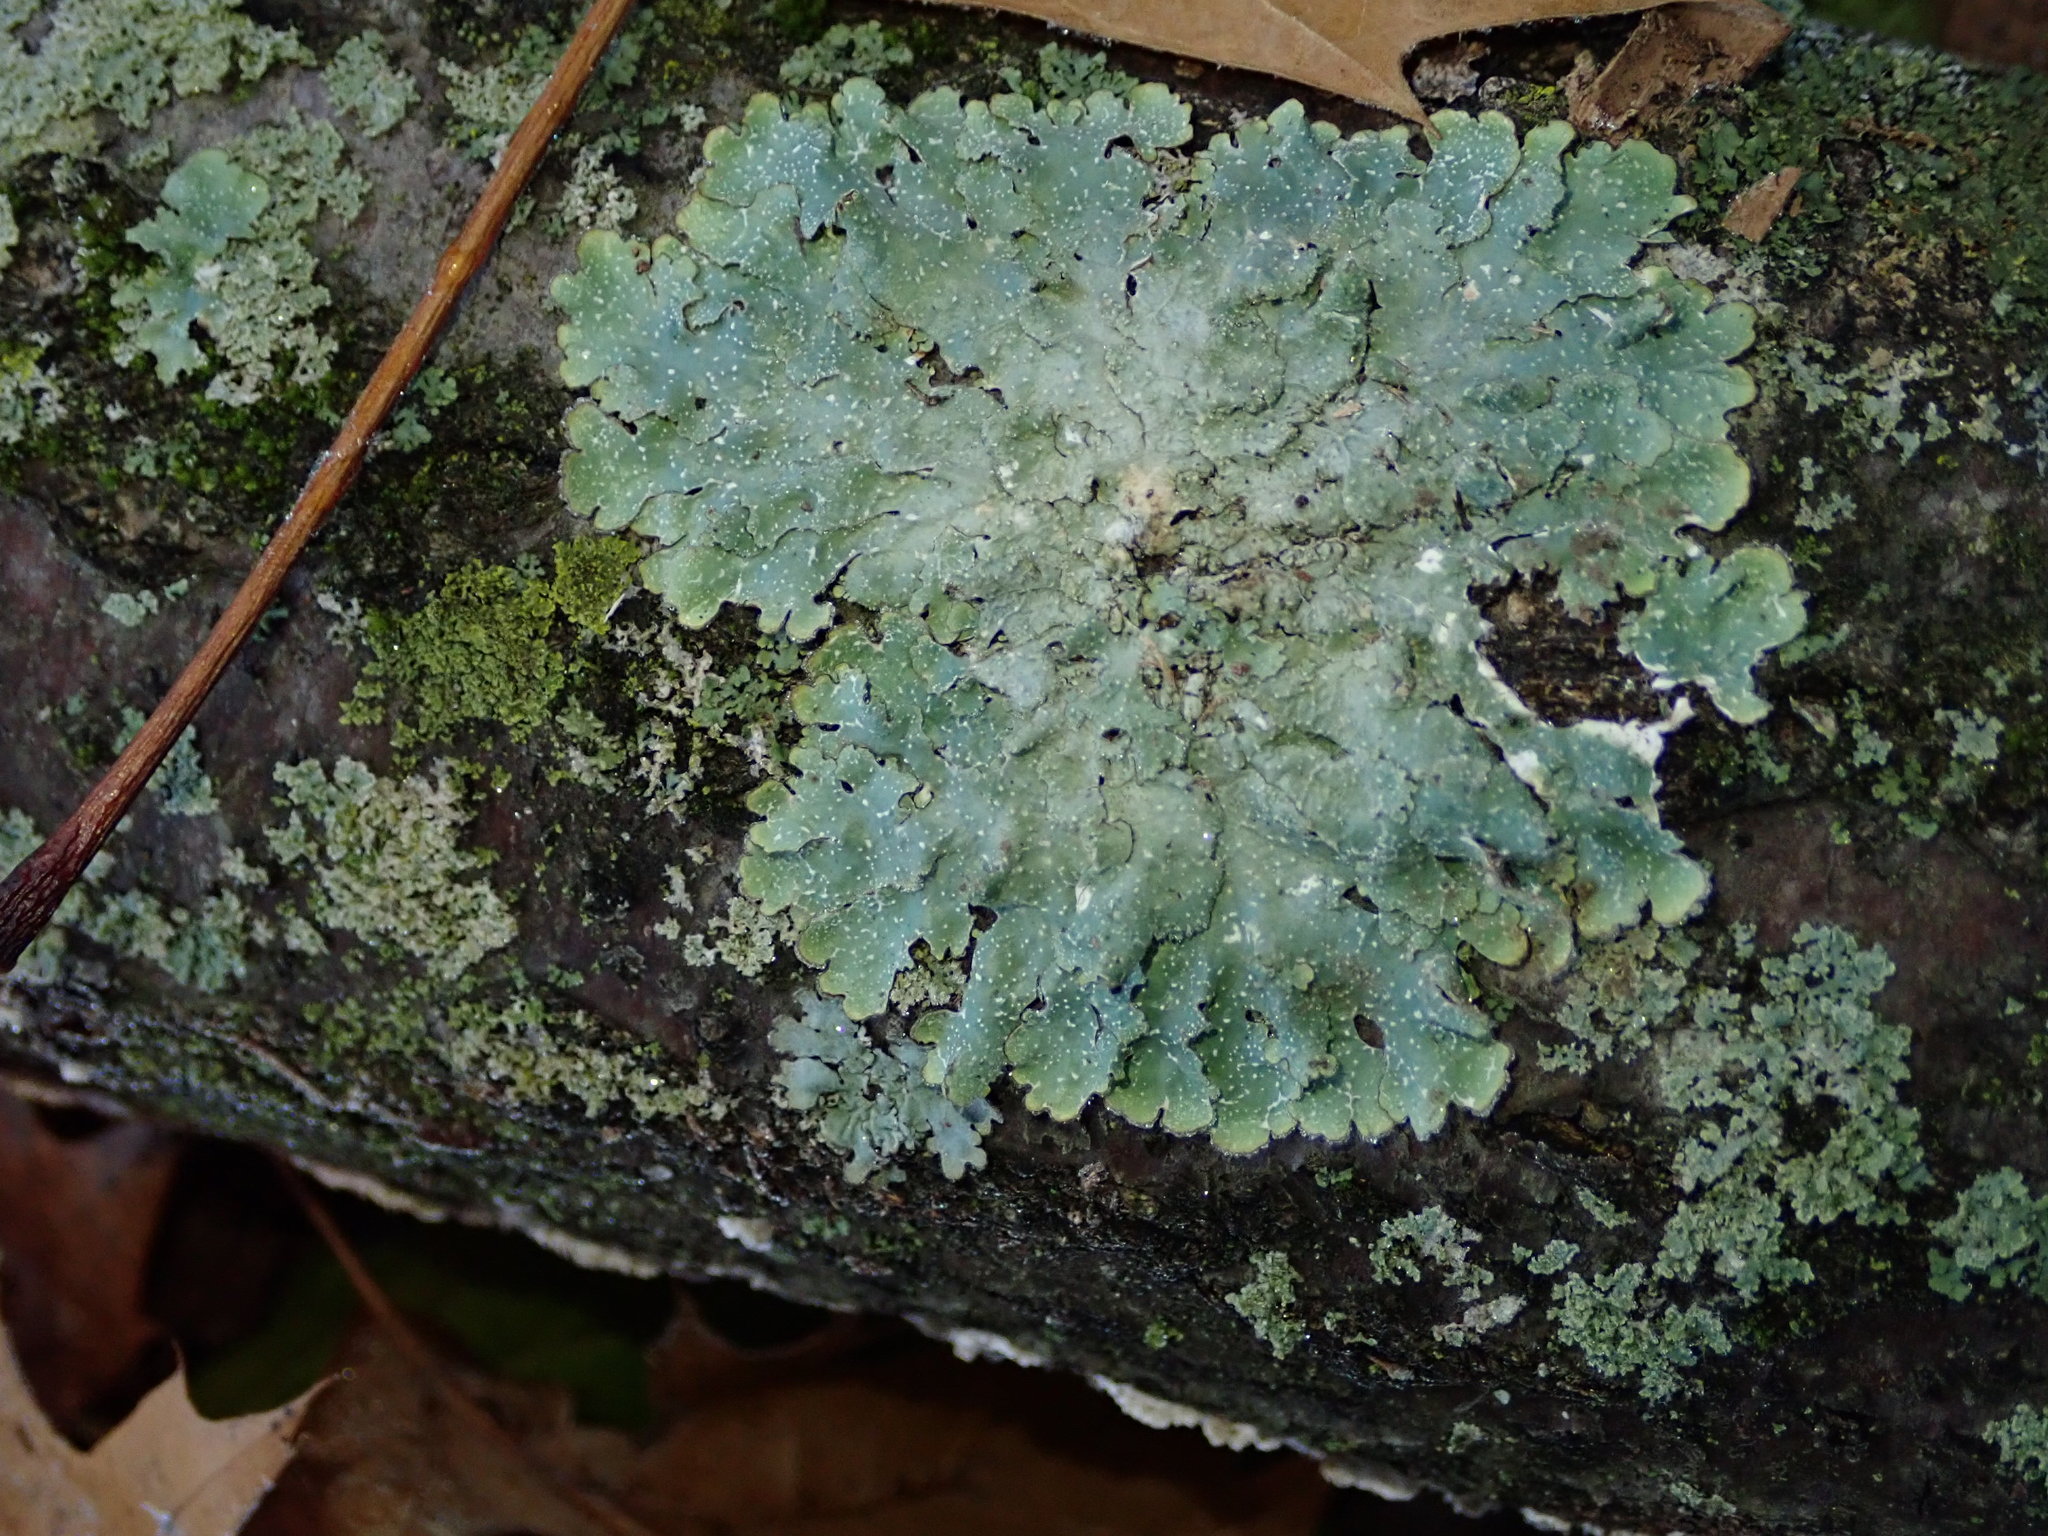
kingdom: Fungi
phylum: Ascomycota
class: Lecanoromycetes
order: Lecanorales
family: Parmeliaceae
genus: Punctelia
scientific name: Punctelia missouriensis
